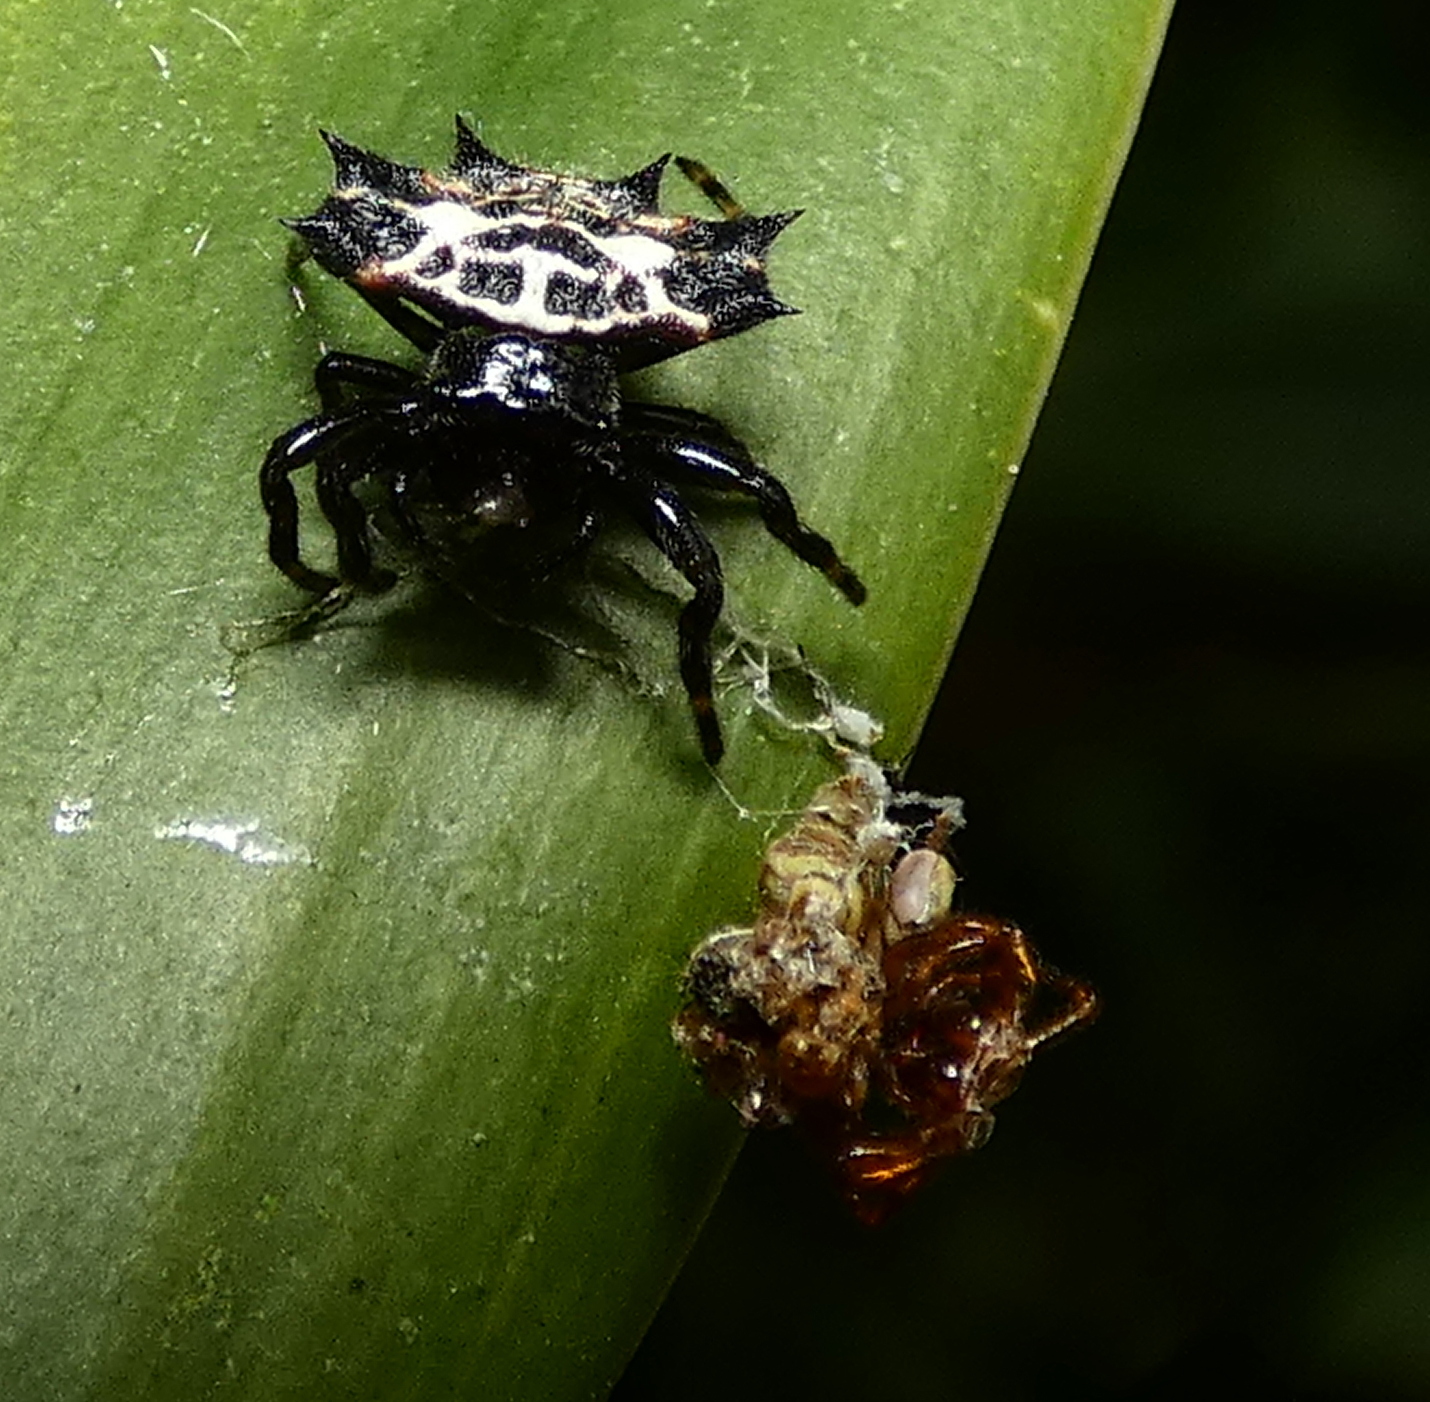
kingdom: Animalia
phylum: Arthropoda
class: Arachnida
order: Araneae
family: Araneidae
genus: Gasteracantha
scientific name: Gasteracantha cancriformis
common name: Orb weavers
